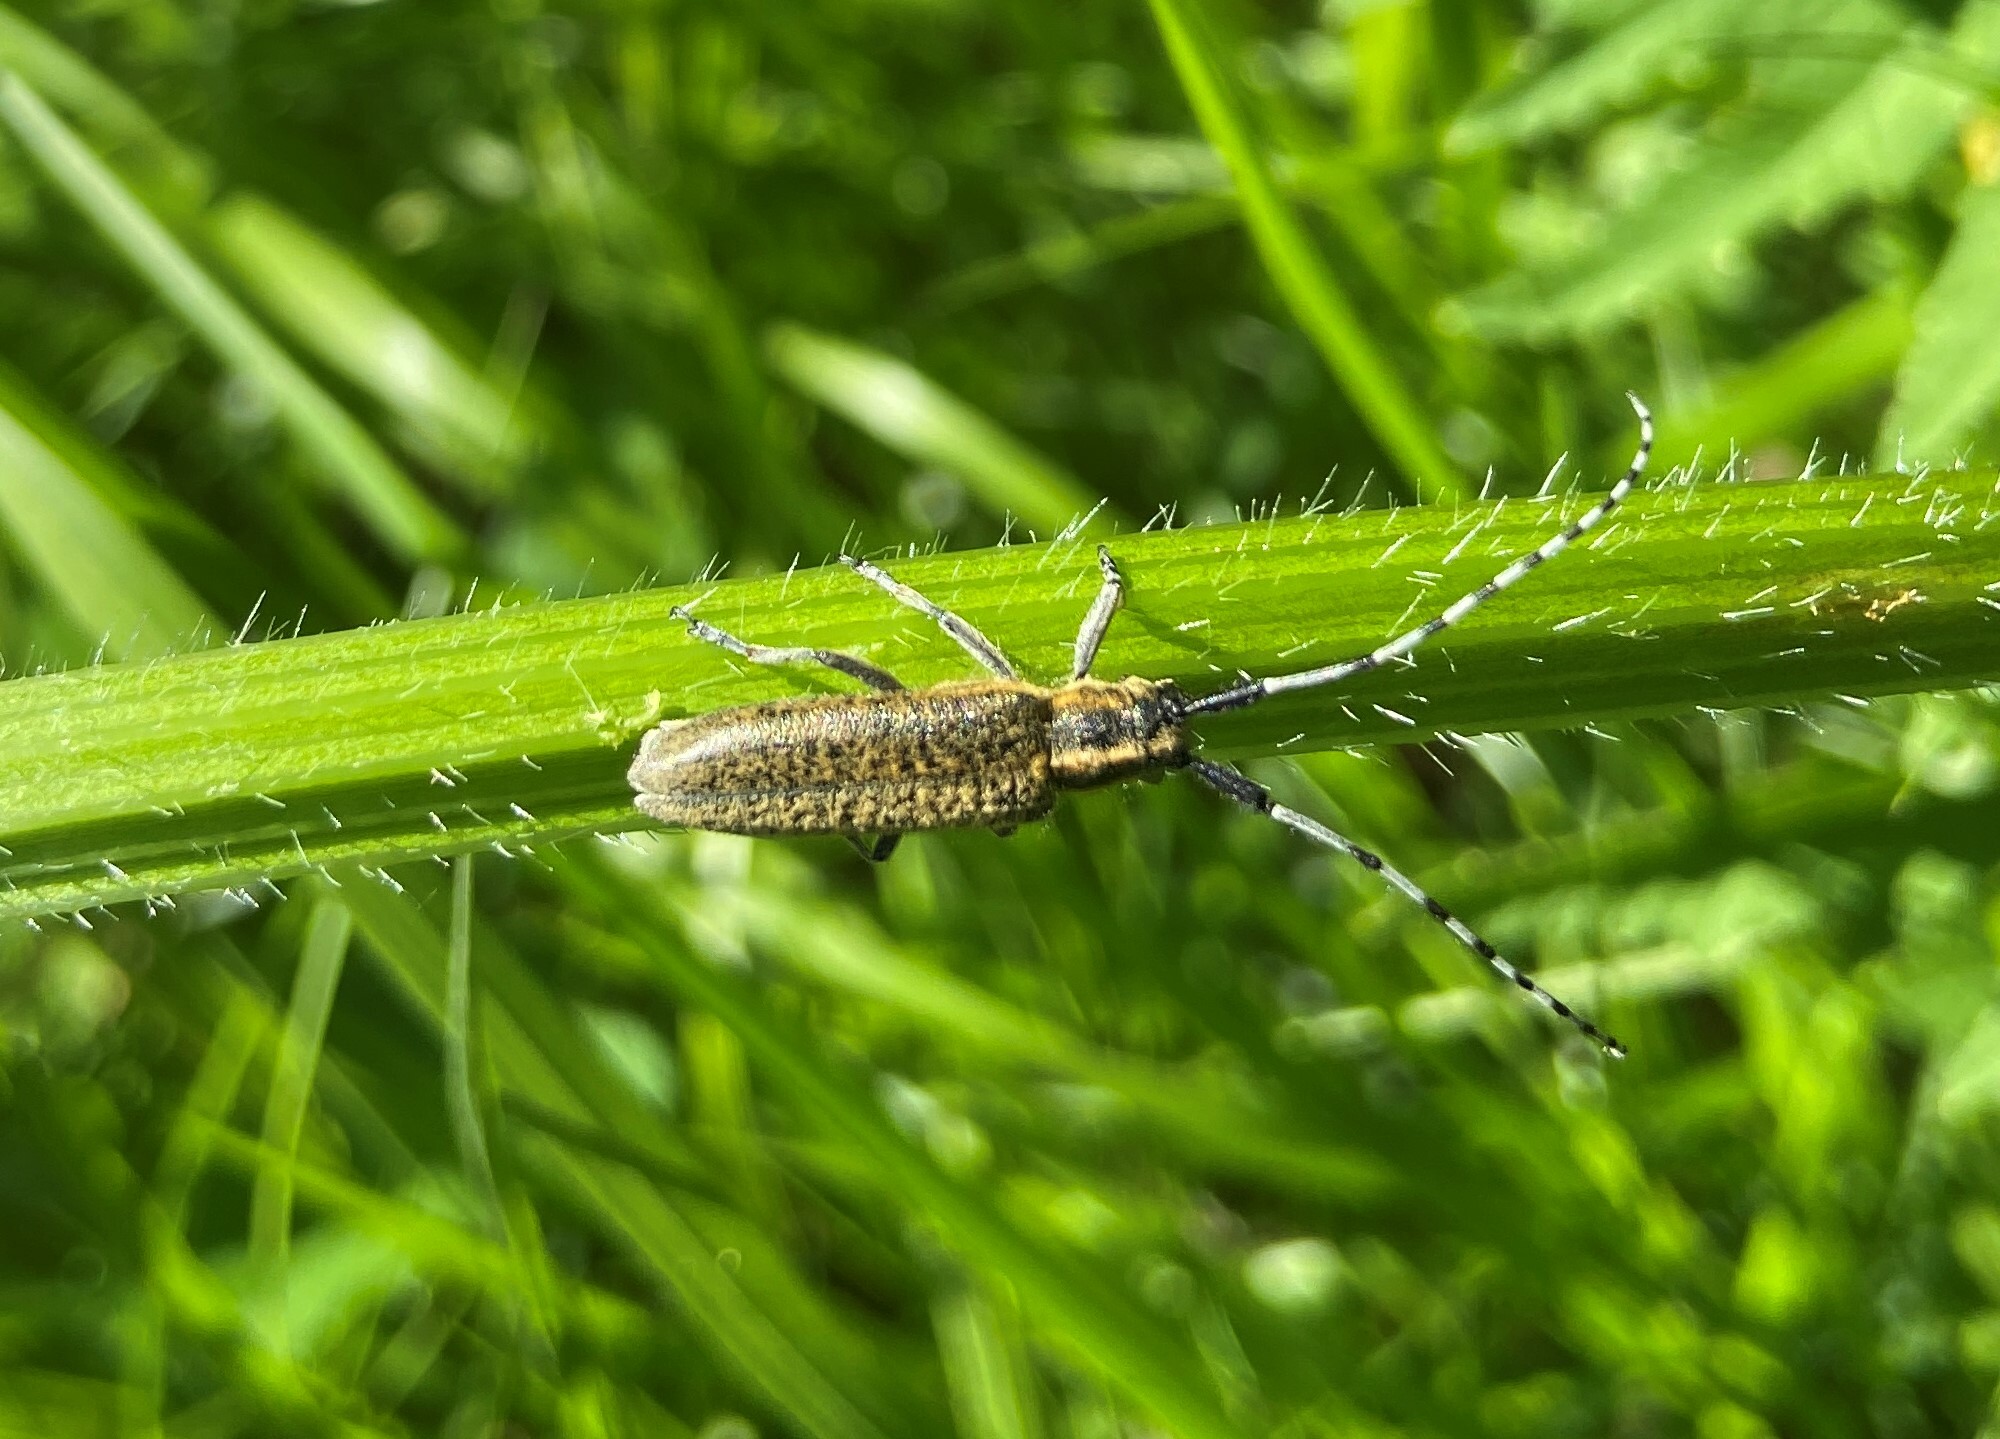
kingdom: Animalia
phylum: Arthropoda
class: Insecta
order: Coleoptera
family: Cerambycidae
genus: Agapanthia
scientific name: Agapanthia villosoviridescens
